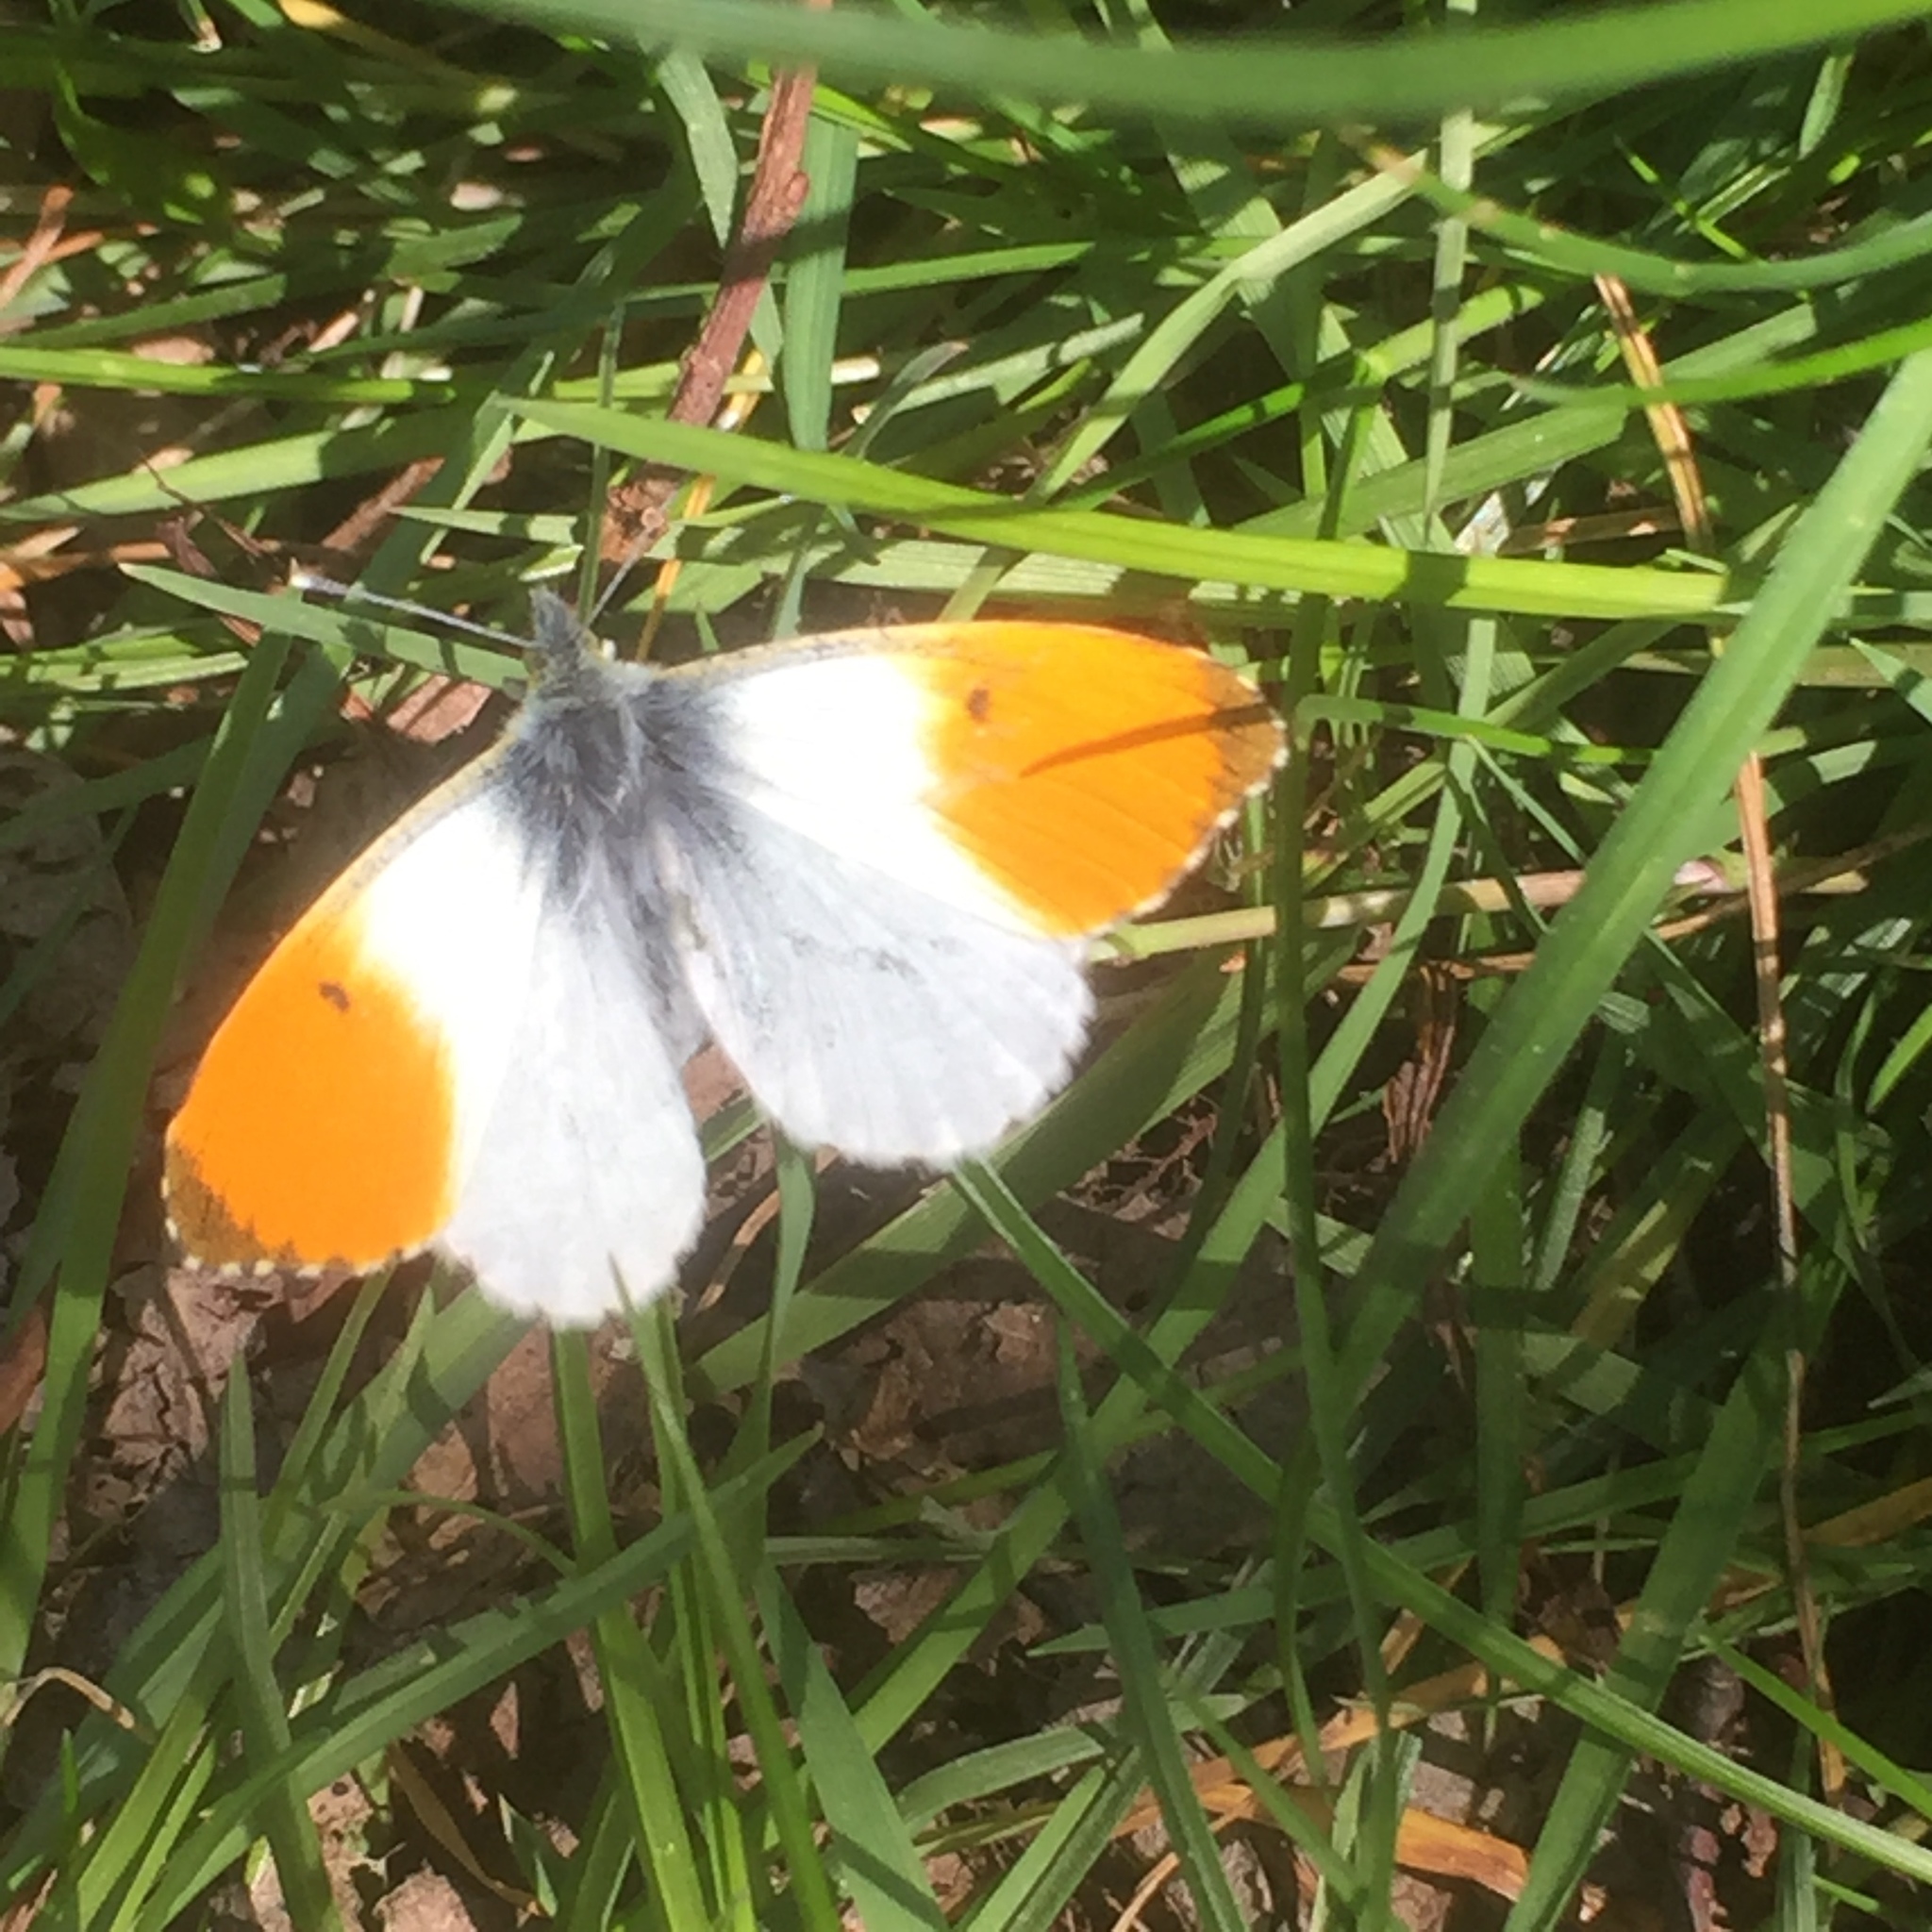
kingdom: Animalia
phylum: Arthropoda
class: Insecta
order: Lepidoptera
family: Pieridae
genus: Anthocharis
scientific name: Anthocharis cardamines
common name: Orange-tip
